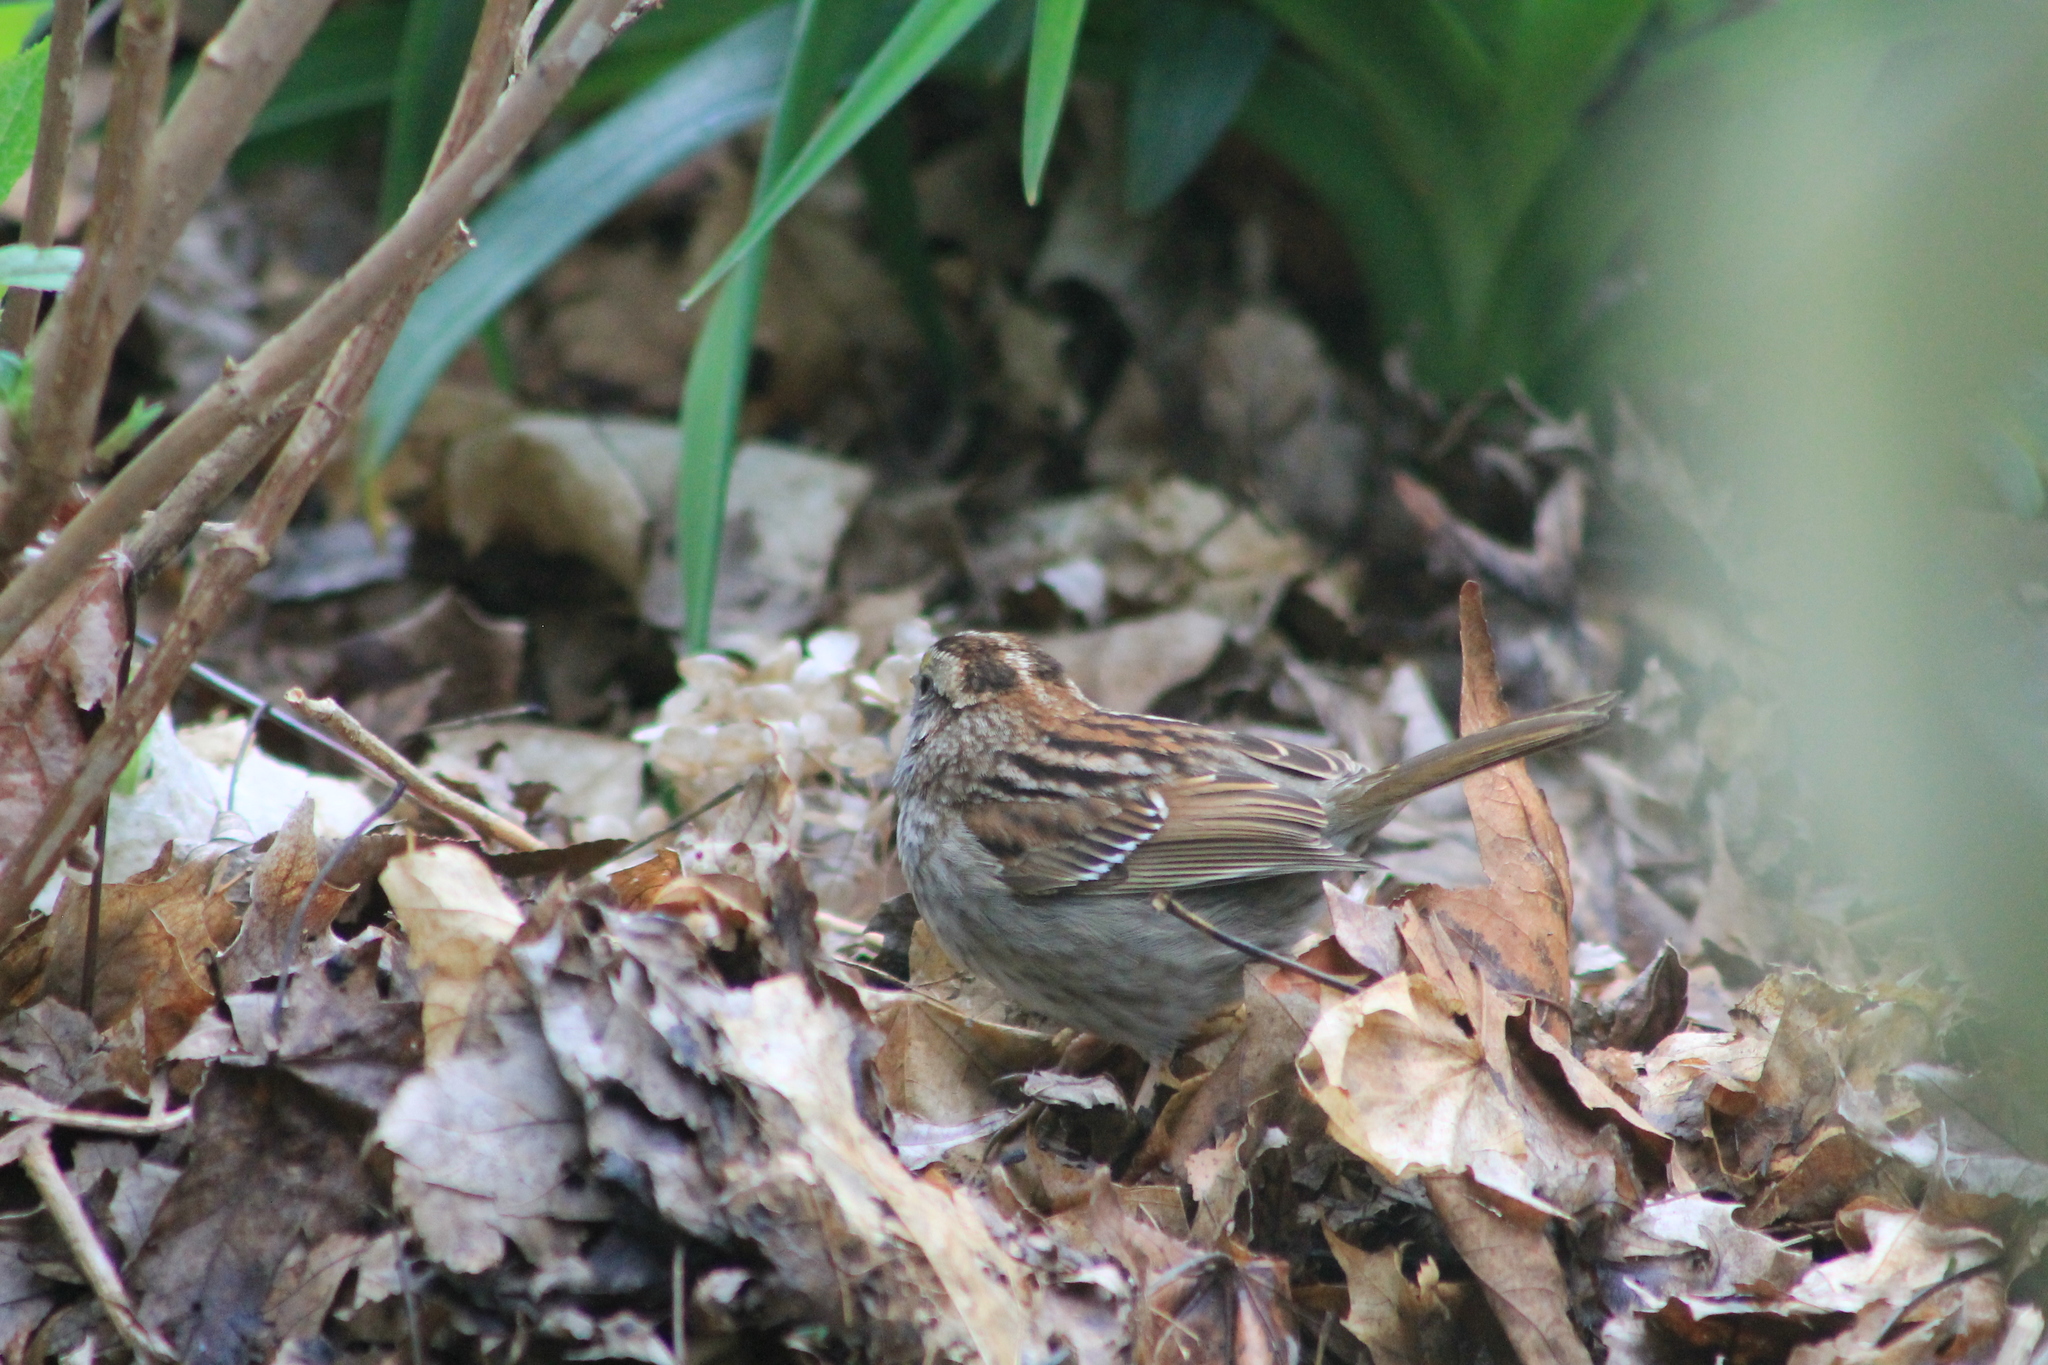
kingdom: Animalia
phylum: Chordata
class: Aves
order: Passeriformes
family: Passerellidae
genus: Zonotrichia
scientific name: Zonotrichia albicollis
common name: White-throated sparrow
